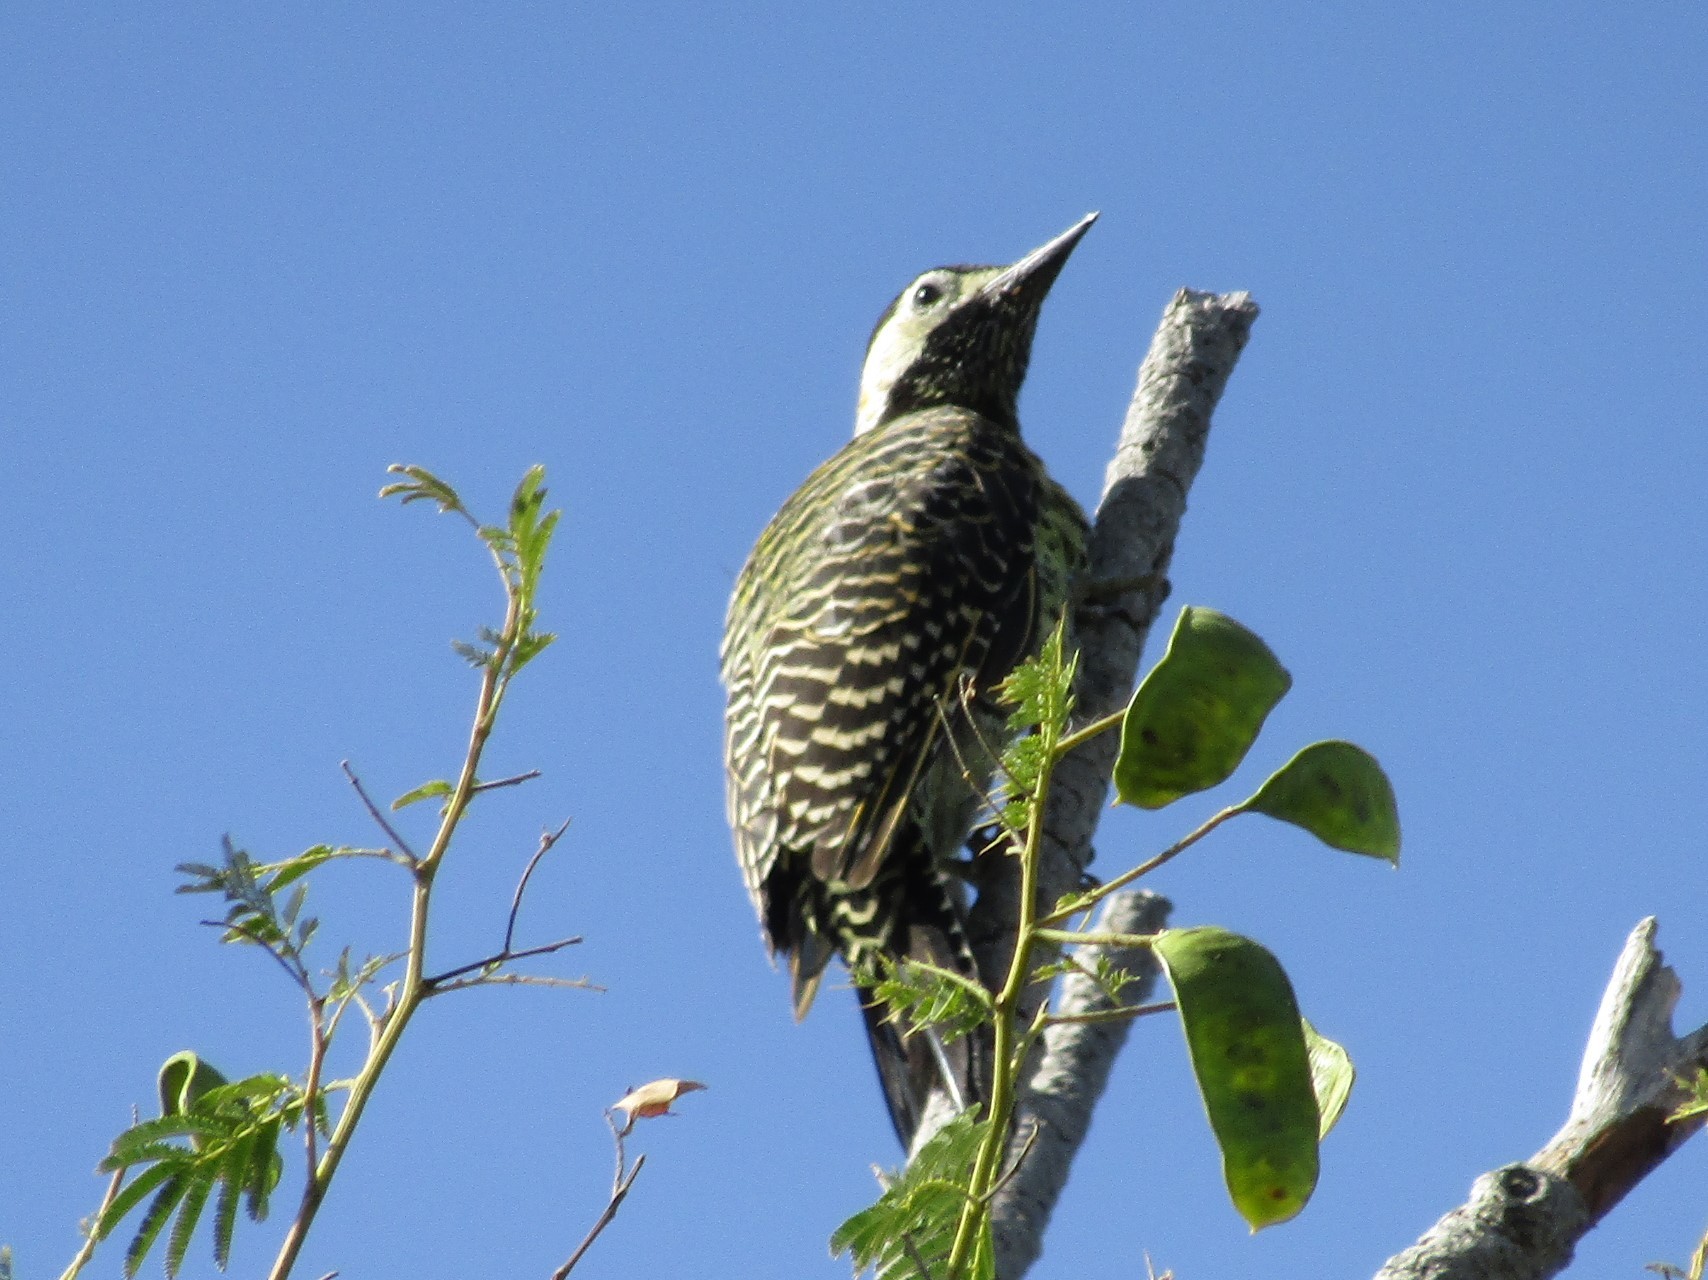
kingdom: Animalia
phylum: Chordata
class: Aves
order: Piciformes
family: Picidae
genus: Colaptes
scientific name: Colaptes melanochloros
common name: Green-barred woodpecker
